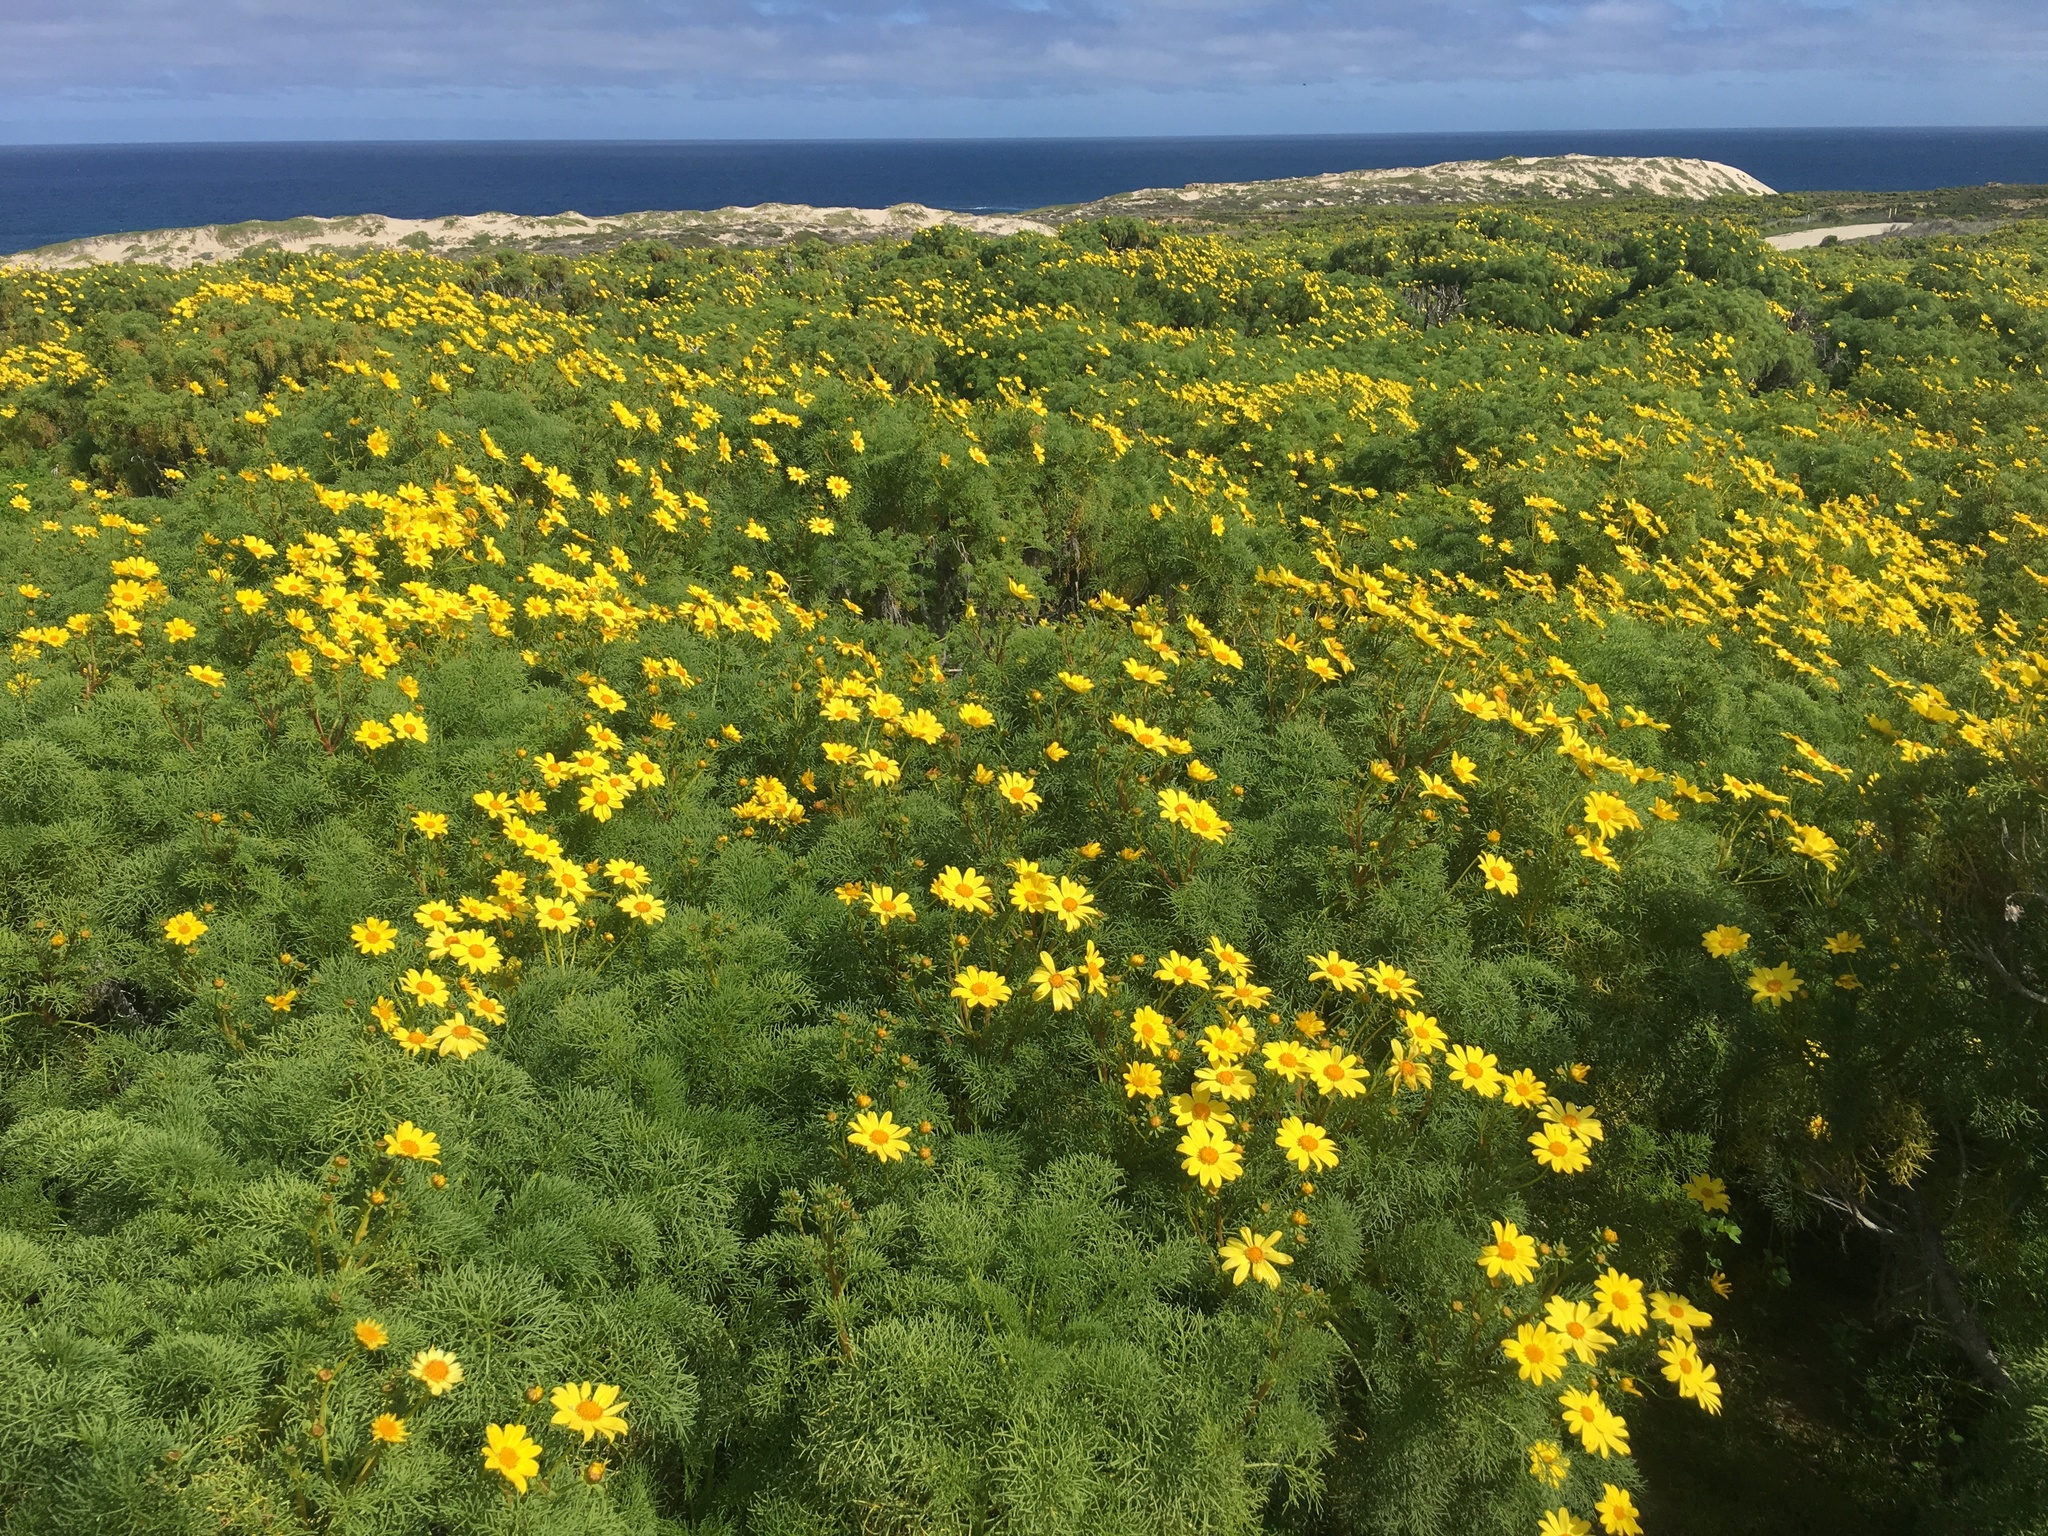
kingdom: Plantae
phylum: Tracheophyta
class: Magnoliopsida
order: Asterales
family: Asteraceae
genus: Coreopsis
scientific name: Coreopsis gigantea
